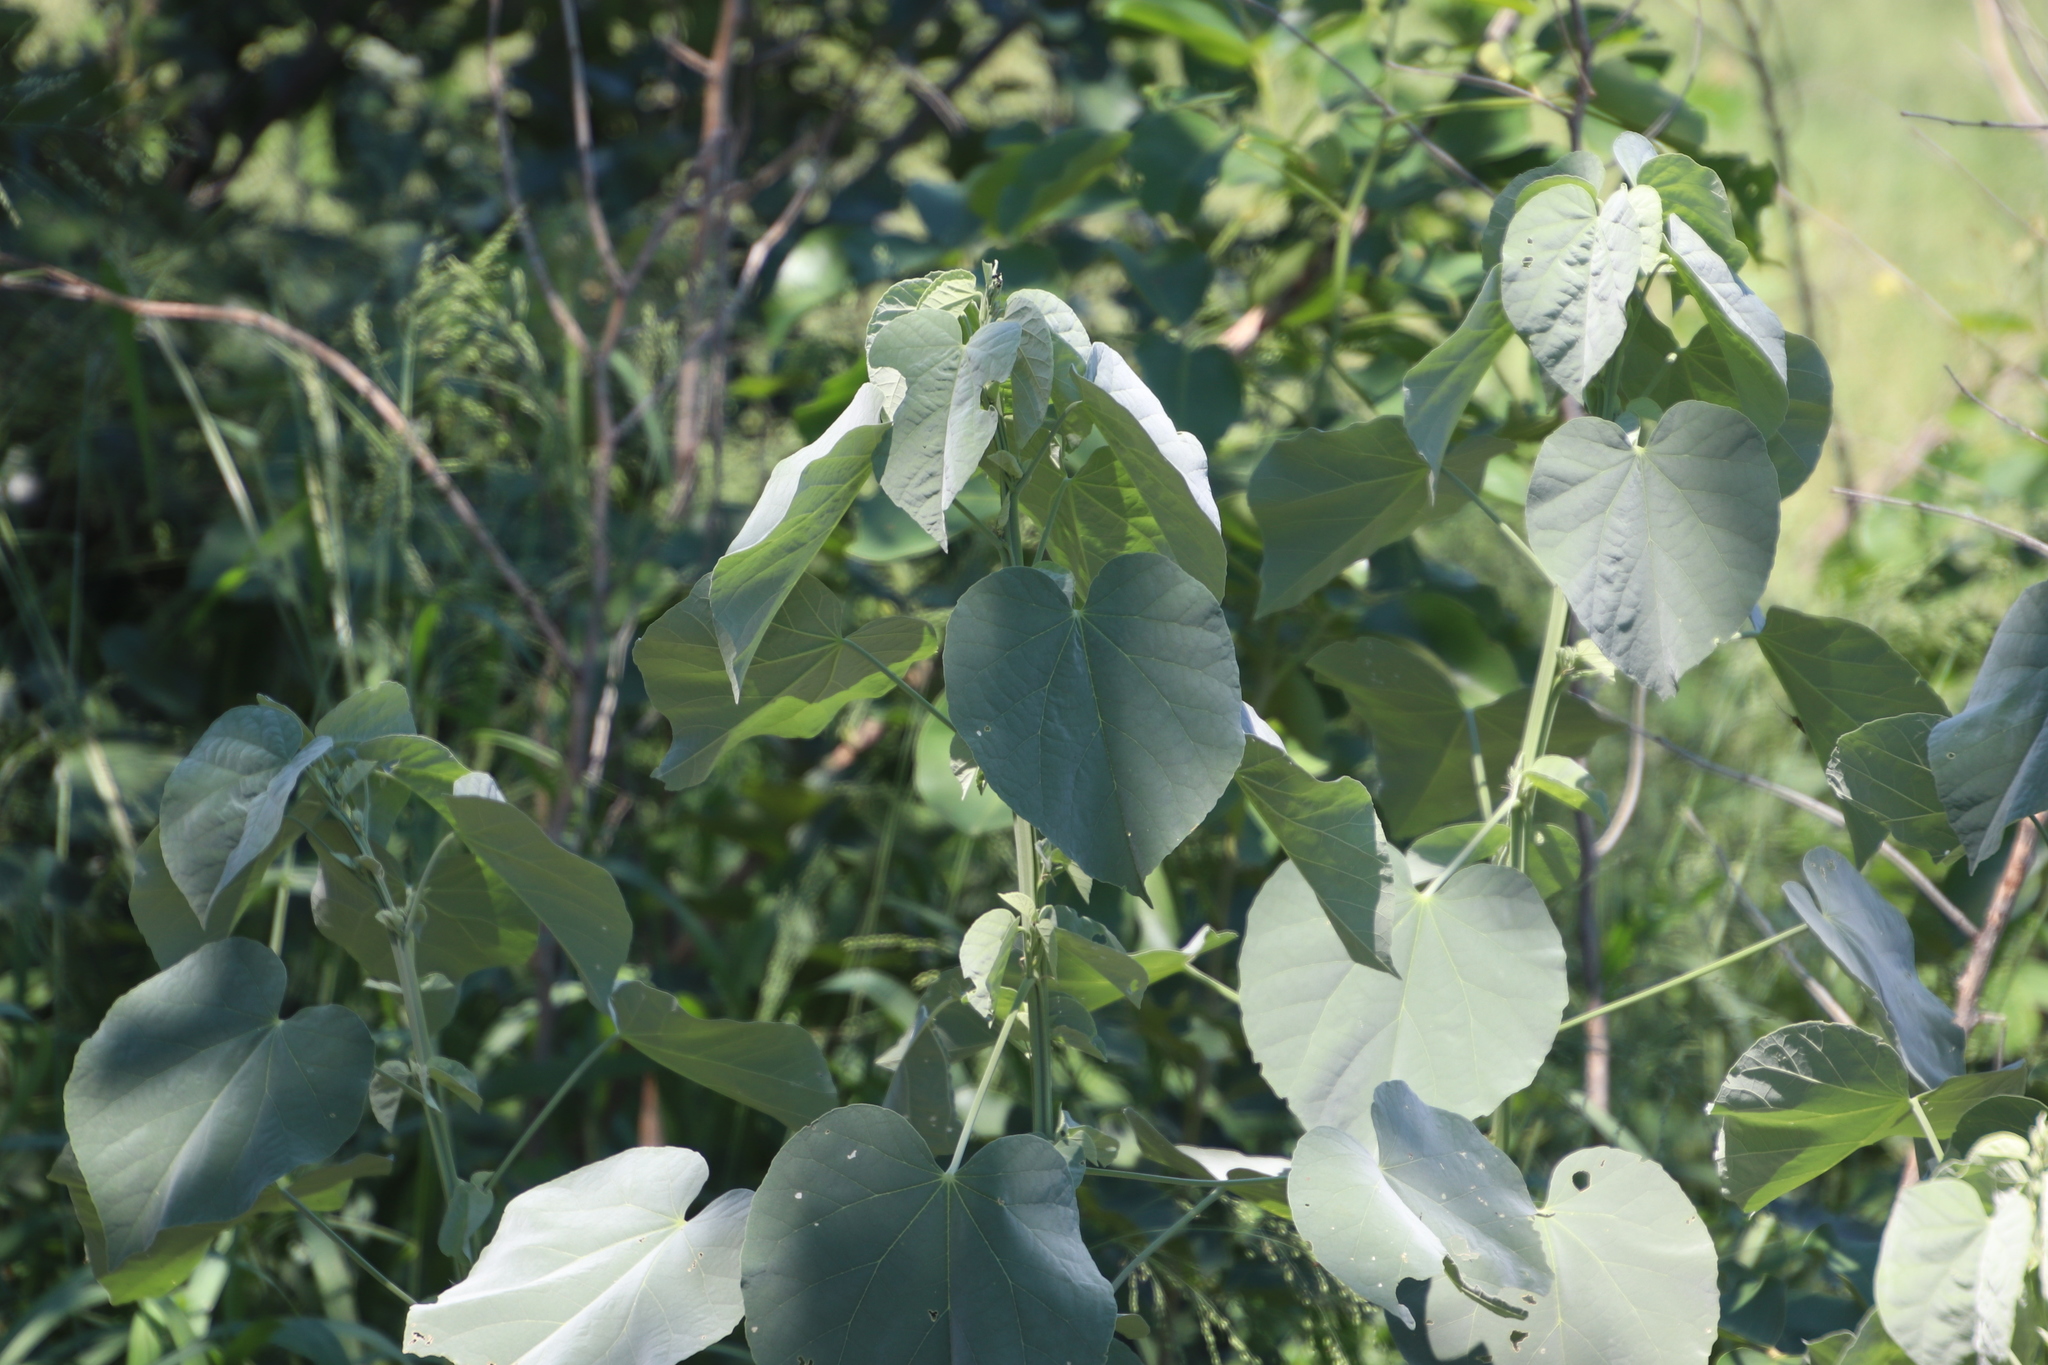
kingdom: Plantae
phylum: Tracheophyta
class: Magnoliopsida
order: Malvales
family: Malvaceae
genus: Abutilon
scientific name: Abutilon angulatum
